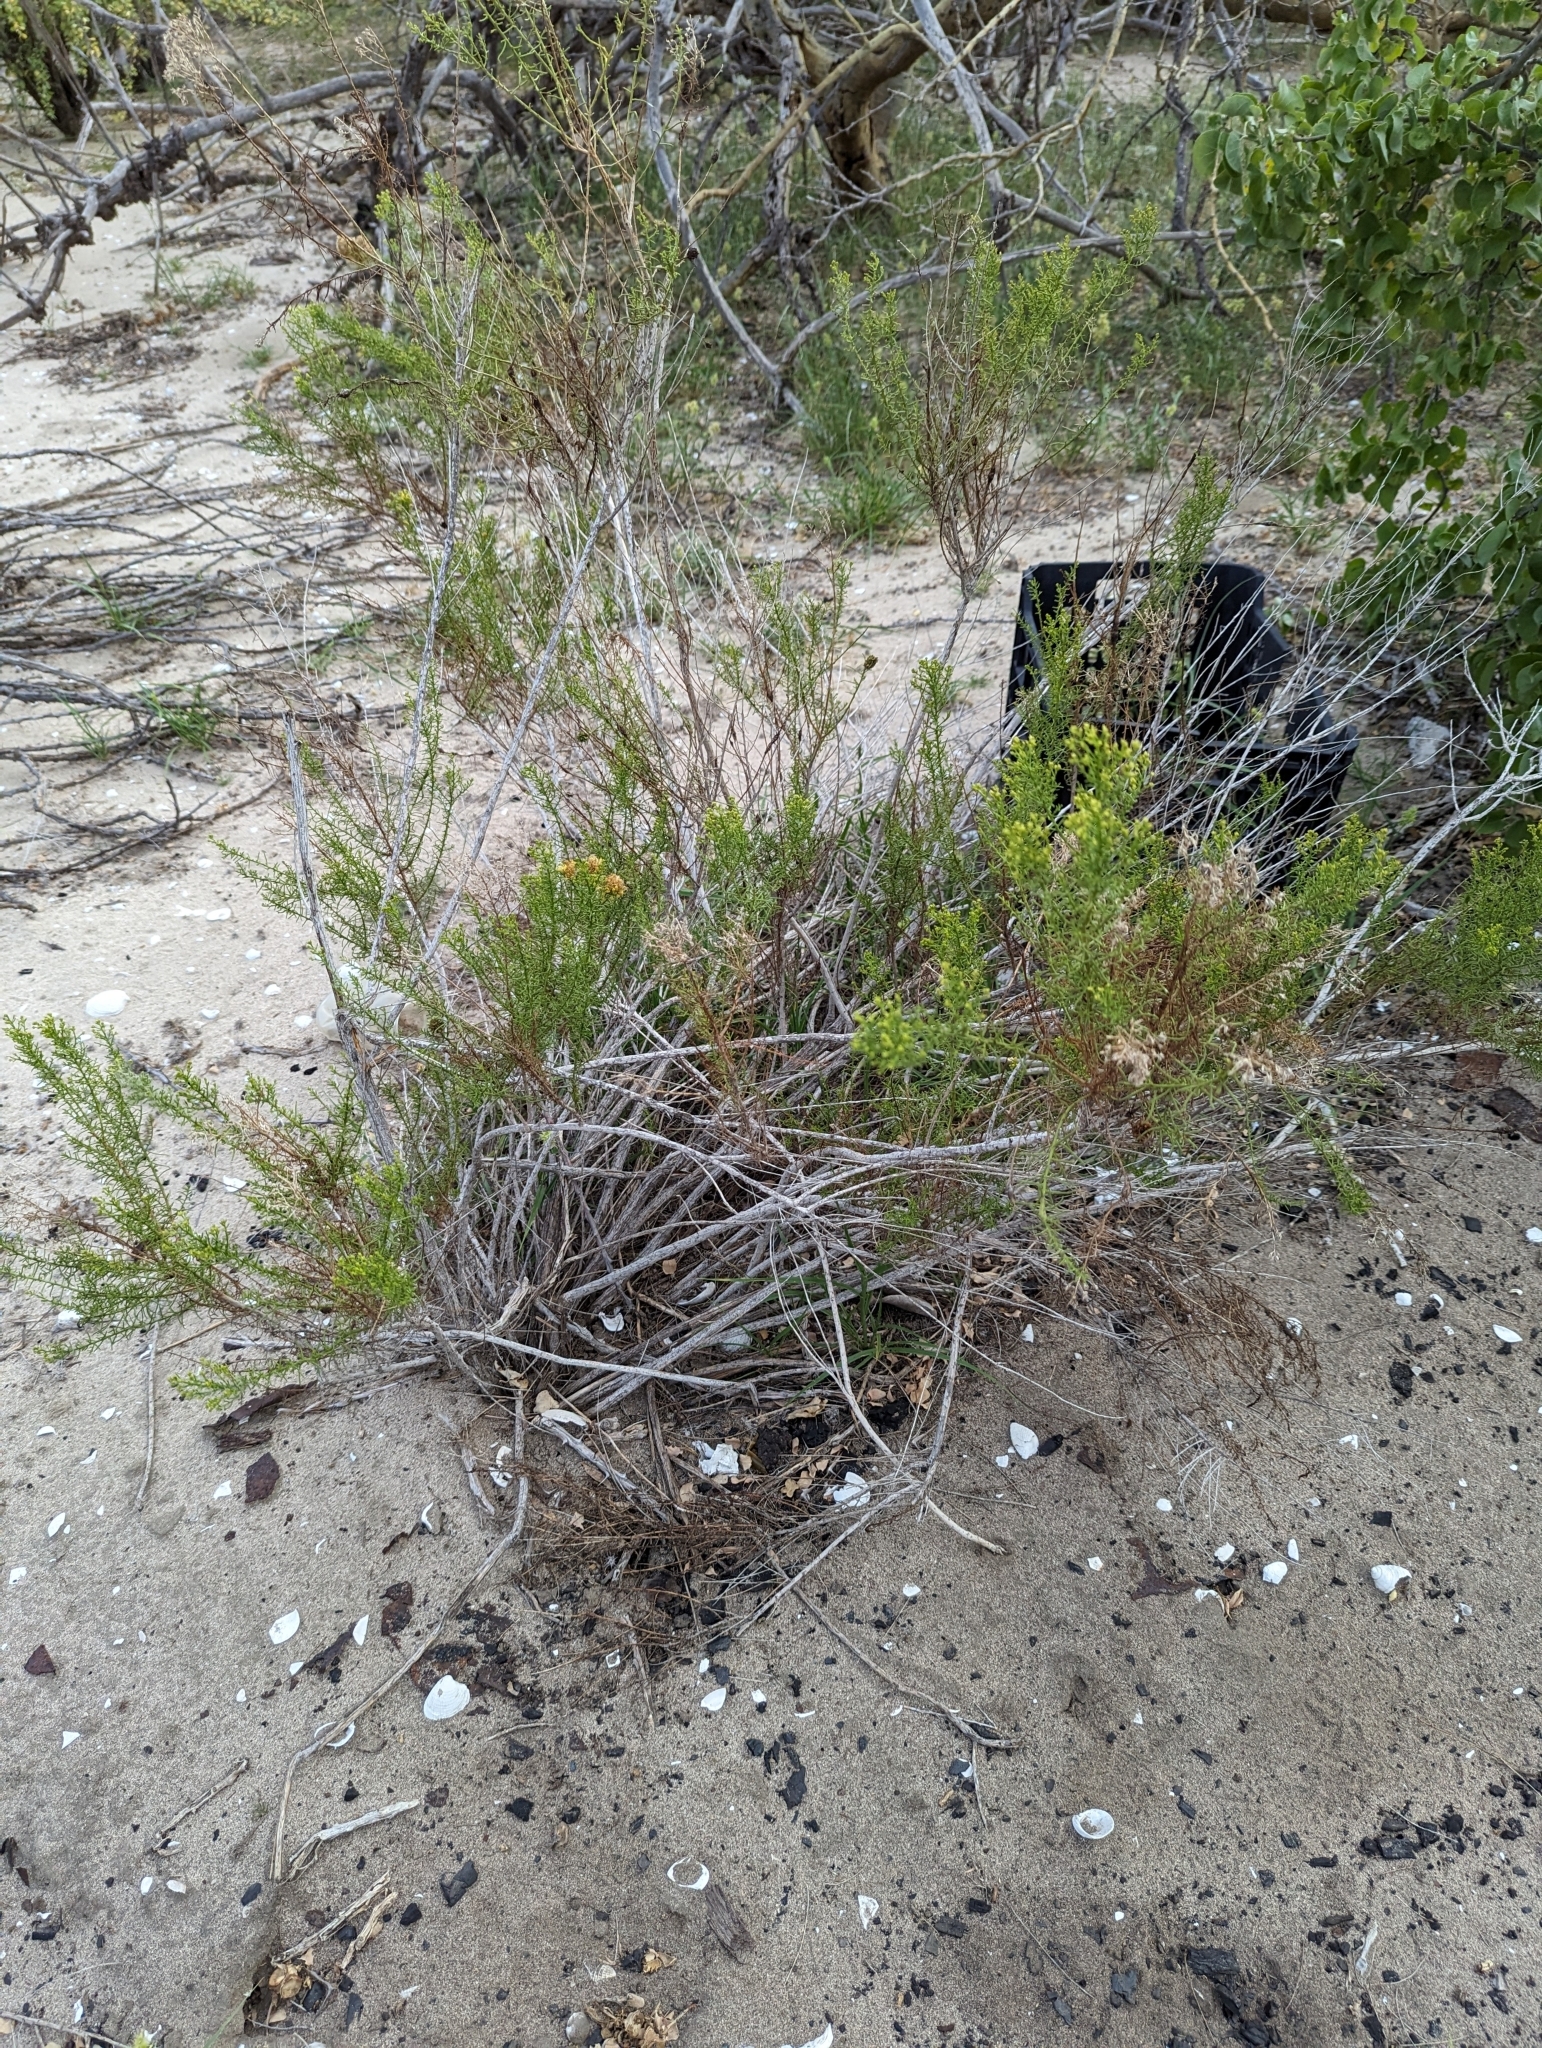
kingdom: Plantae
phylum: Tracheophyta
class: Magnoliopsida
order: Asterales
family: Asteraceae
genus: Gundlachia
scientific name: Gundlachia diffusa
